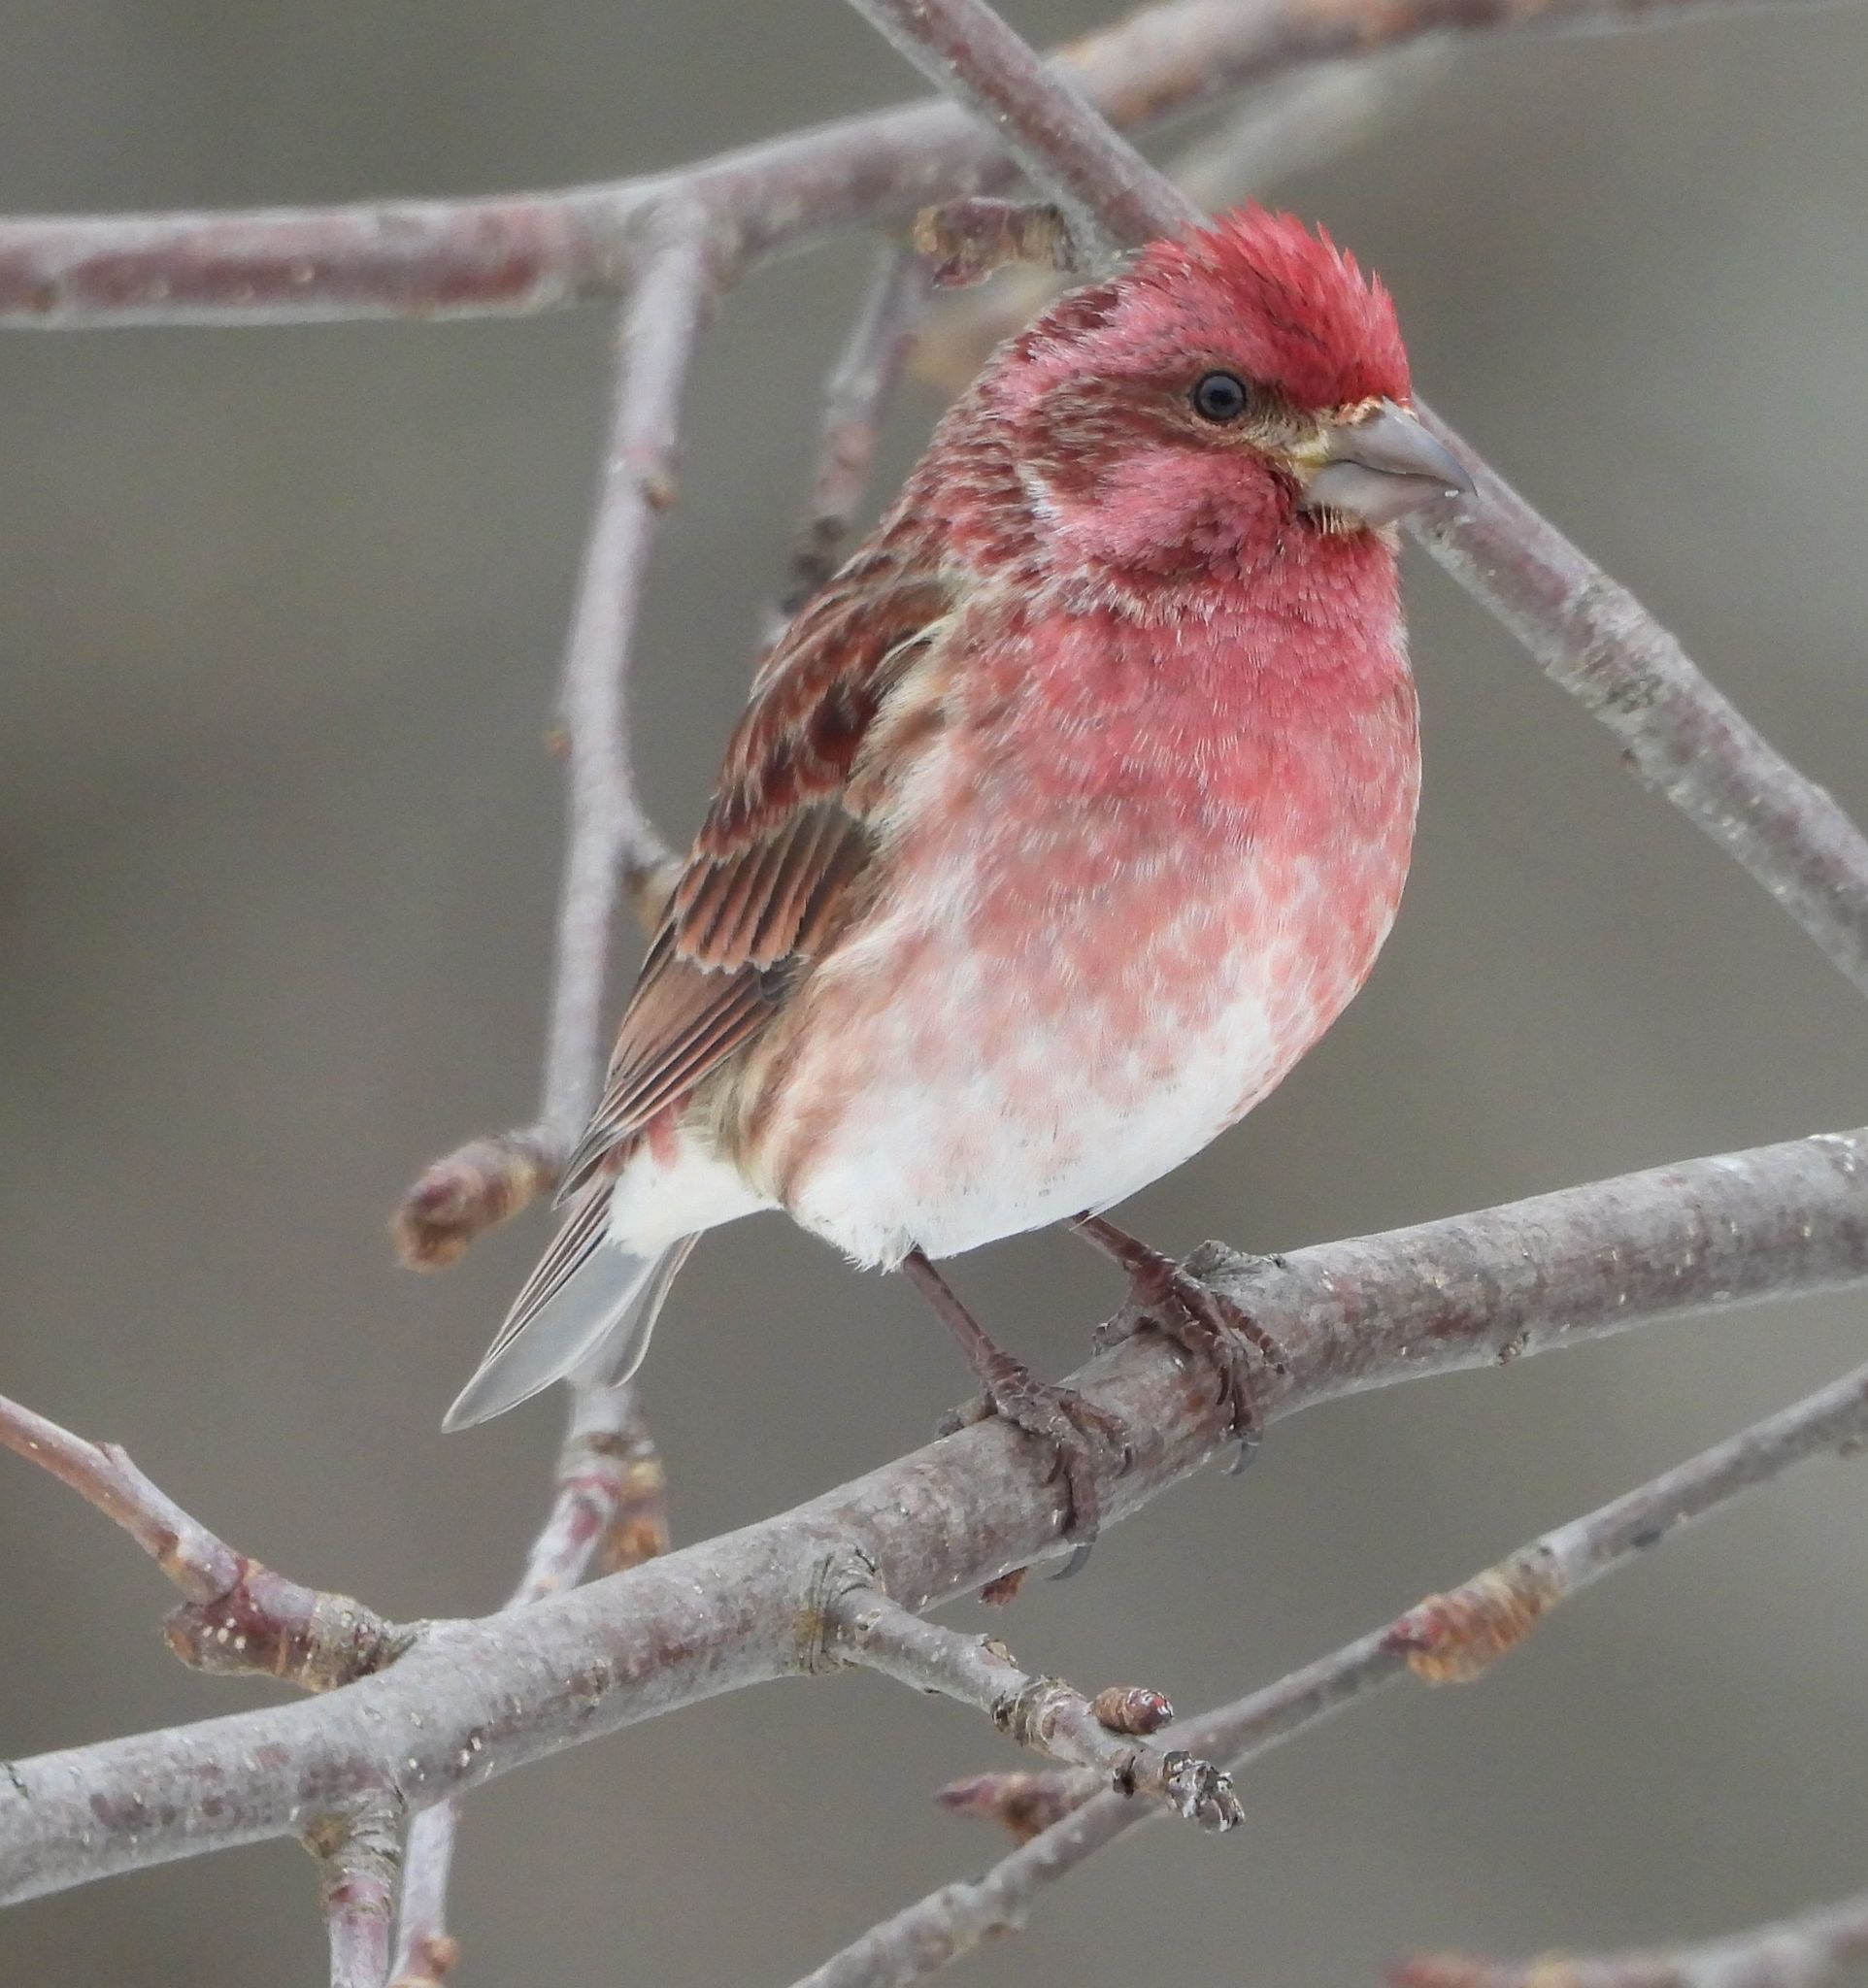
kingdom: Animalia
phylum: Chordata
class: Aves
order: Passeriformes
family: Fringillidae
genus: Haemorhous
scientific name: Haemorhous purpureus
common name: Purple finch
